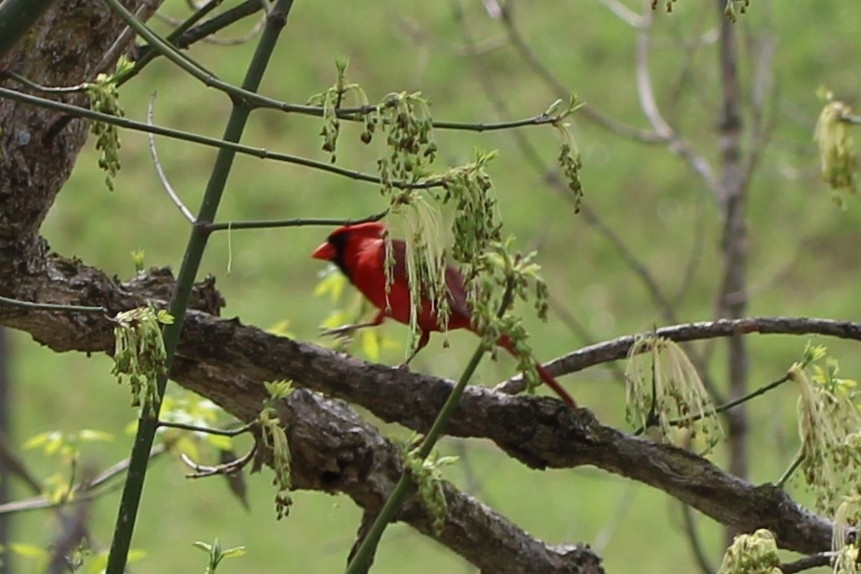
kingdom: Animalia
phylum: Chordata
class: Aves
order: Passeriformes
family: Cardinalidae
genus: Cardinalis
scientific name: Cardinalis cardinalis
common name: Northern cardinal
